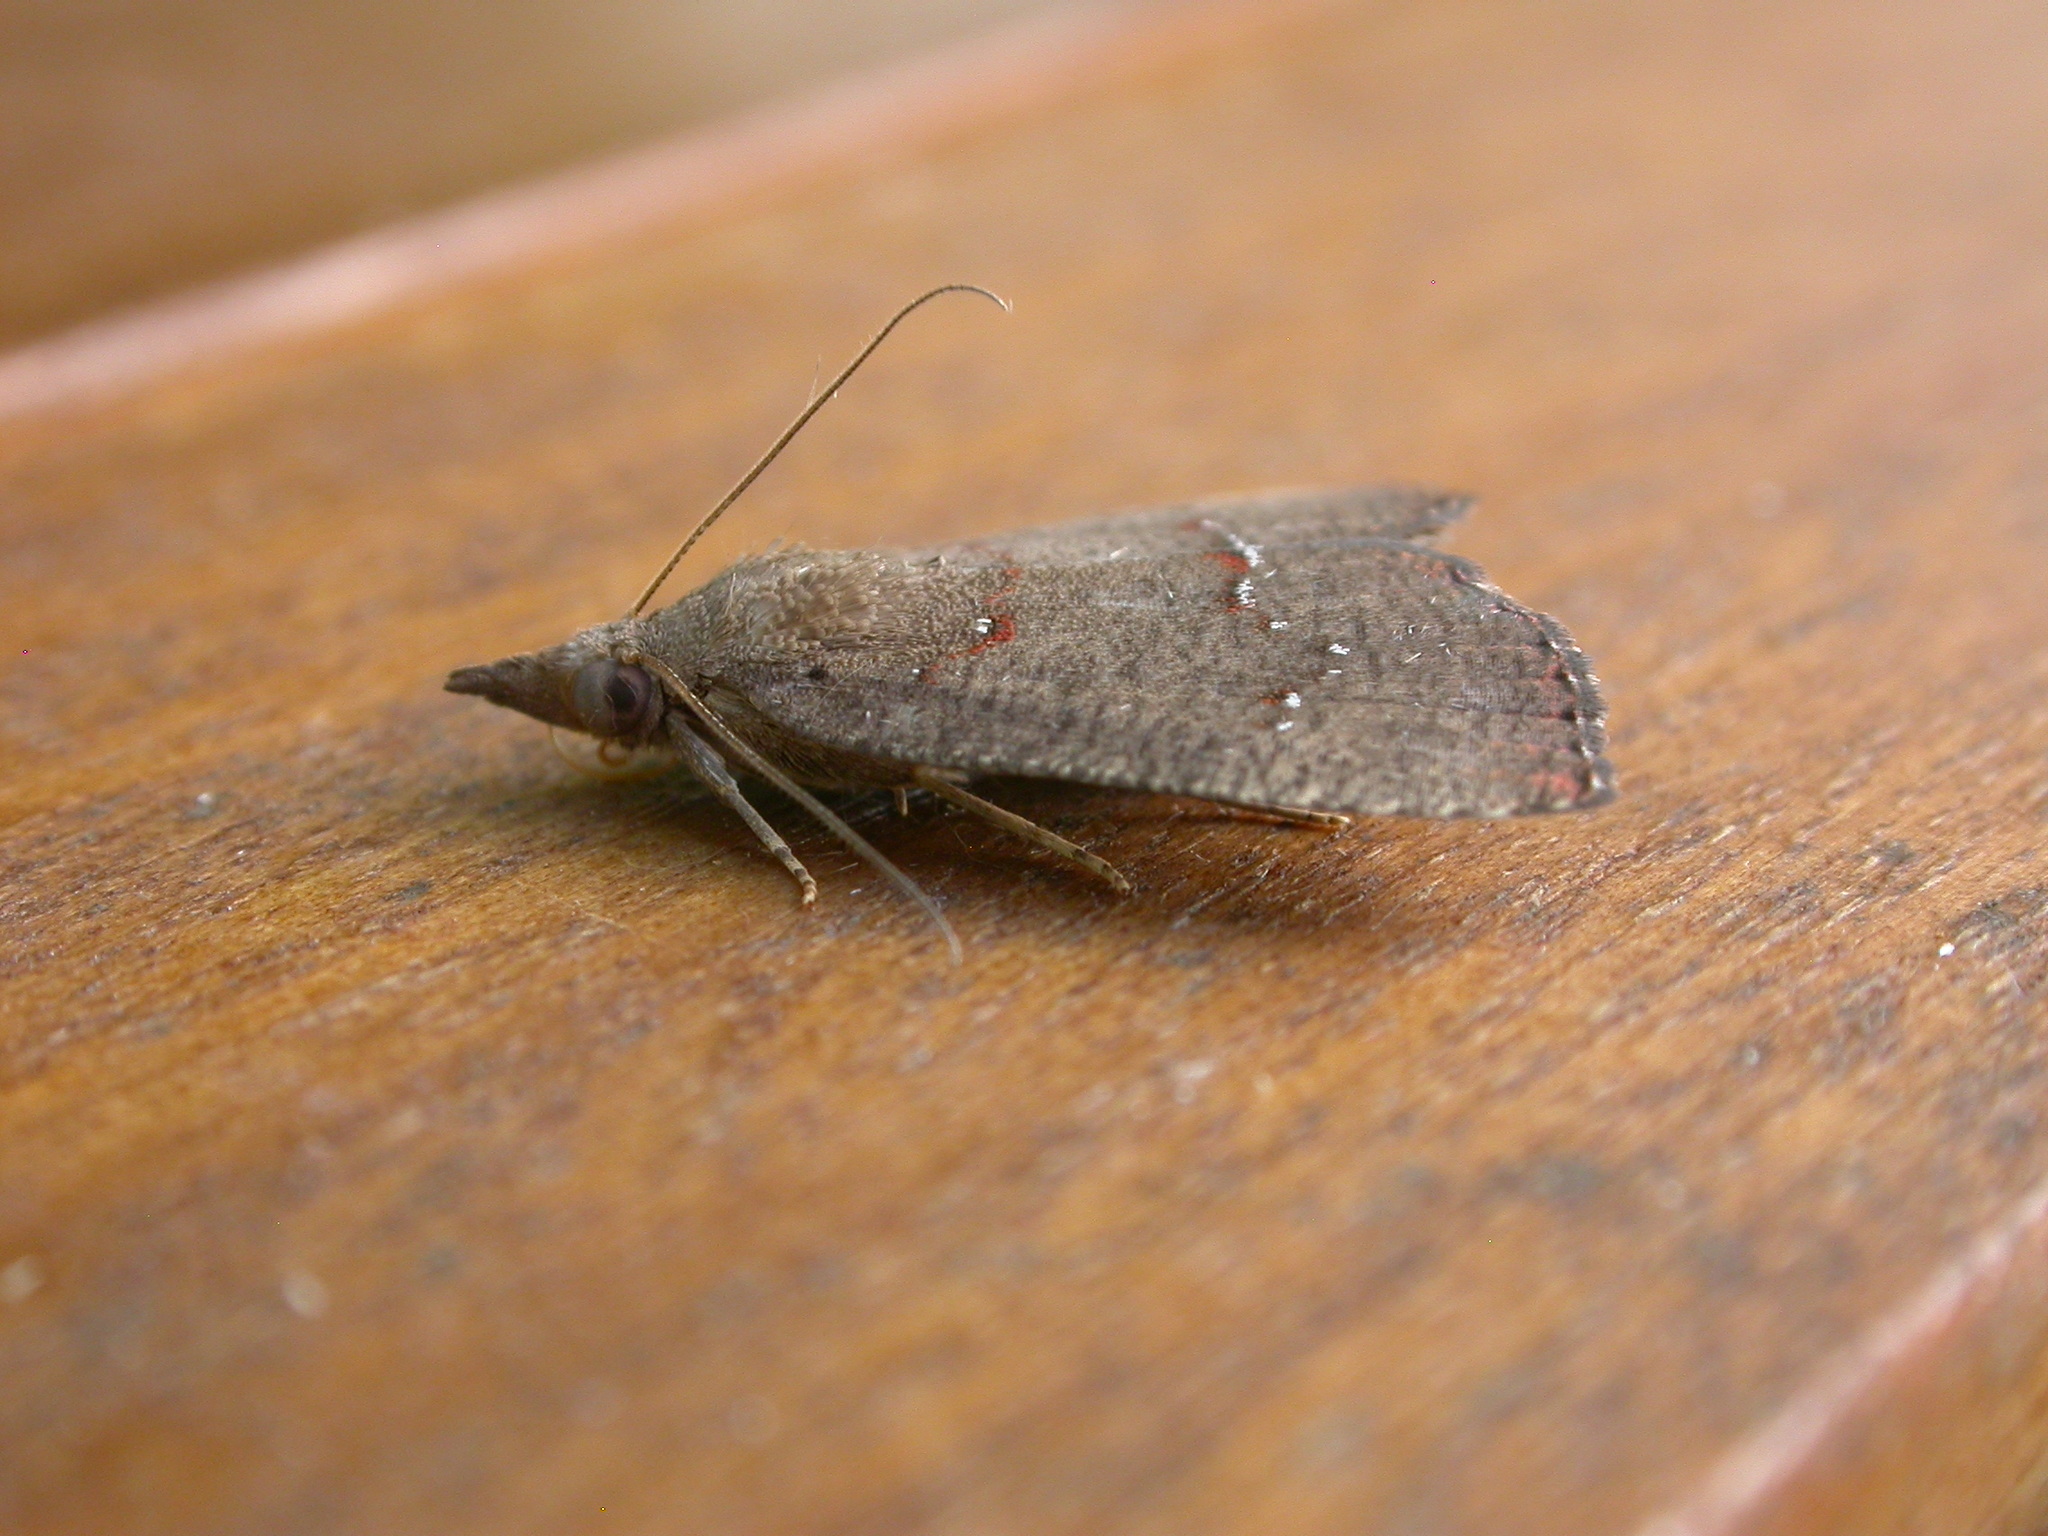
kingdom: Animalia
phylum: Arthropoda
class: Insecta
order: Lepidoptera
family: Erebidae
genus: Aethalina
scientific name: Aethalina asaphes
